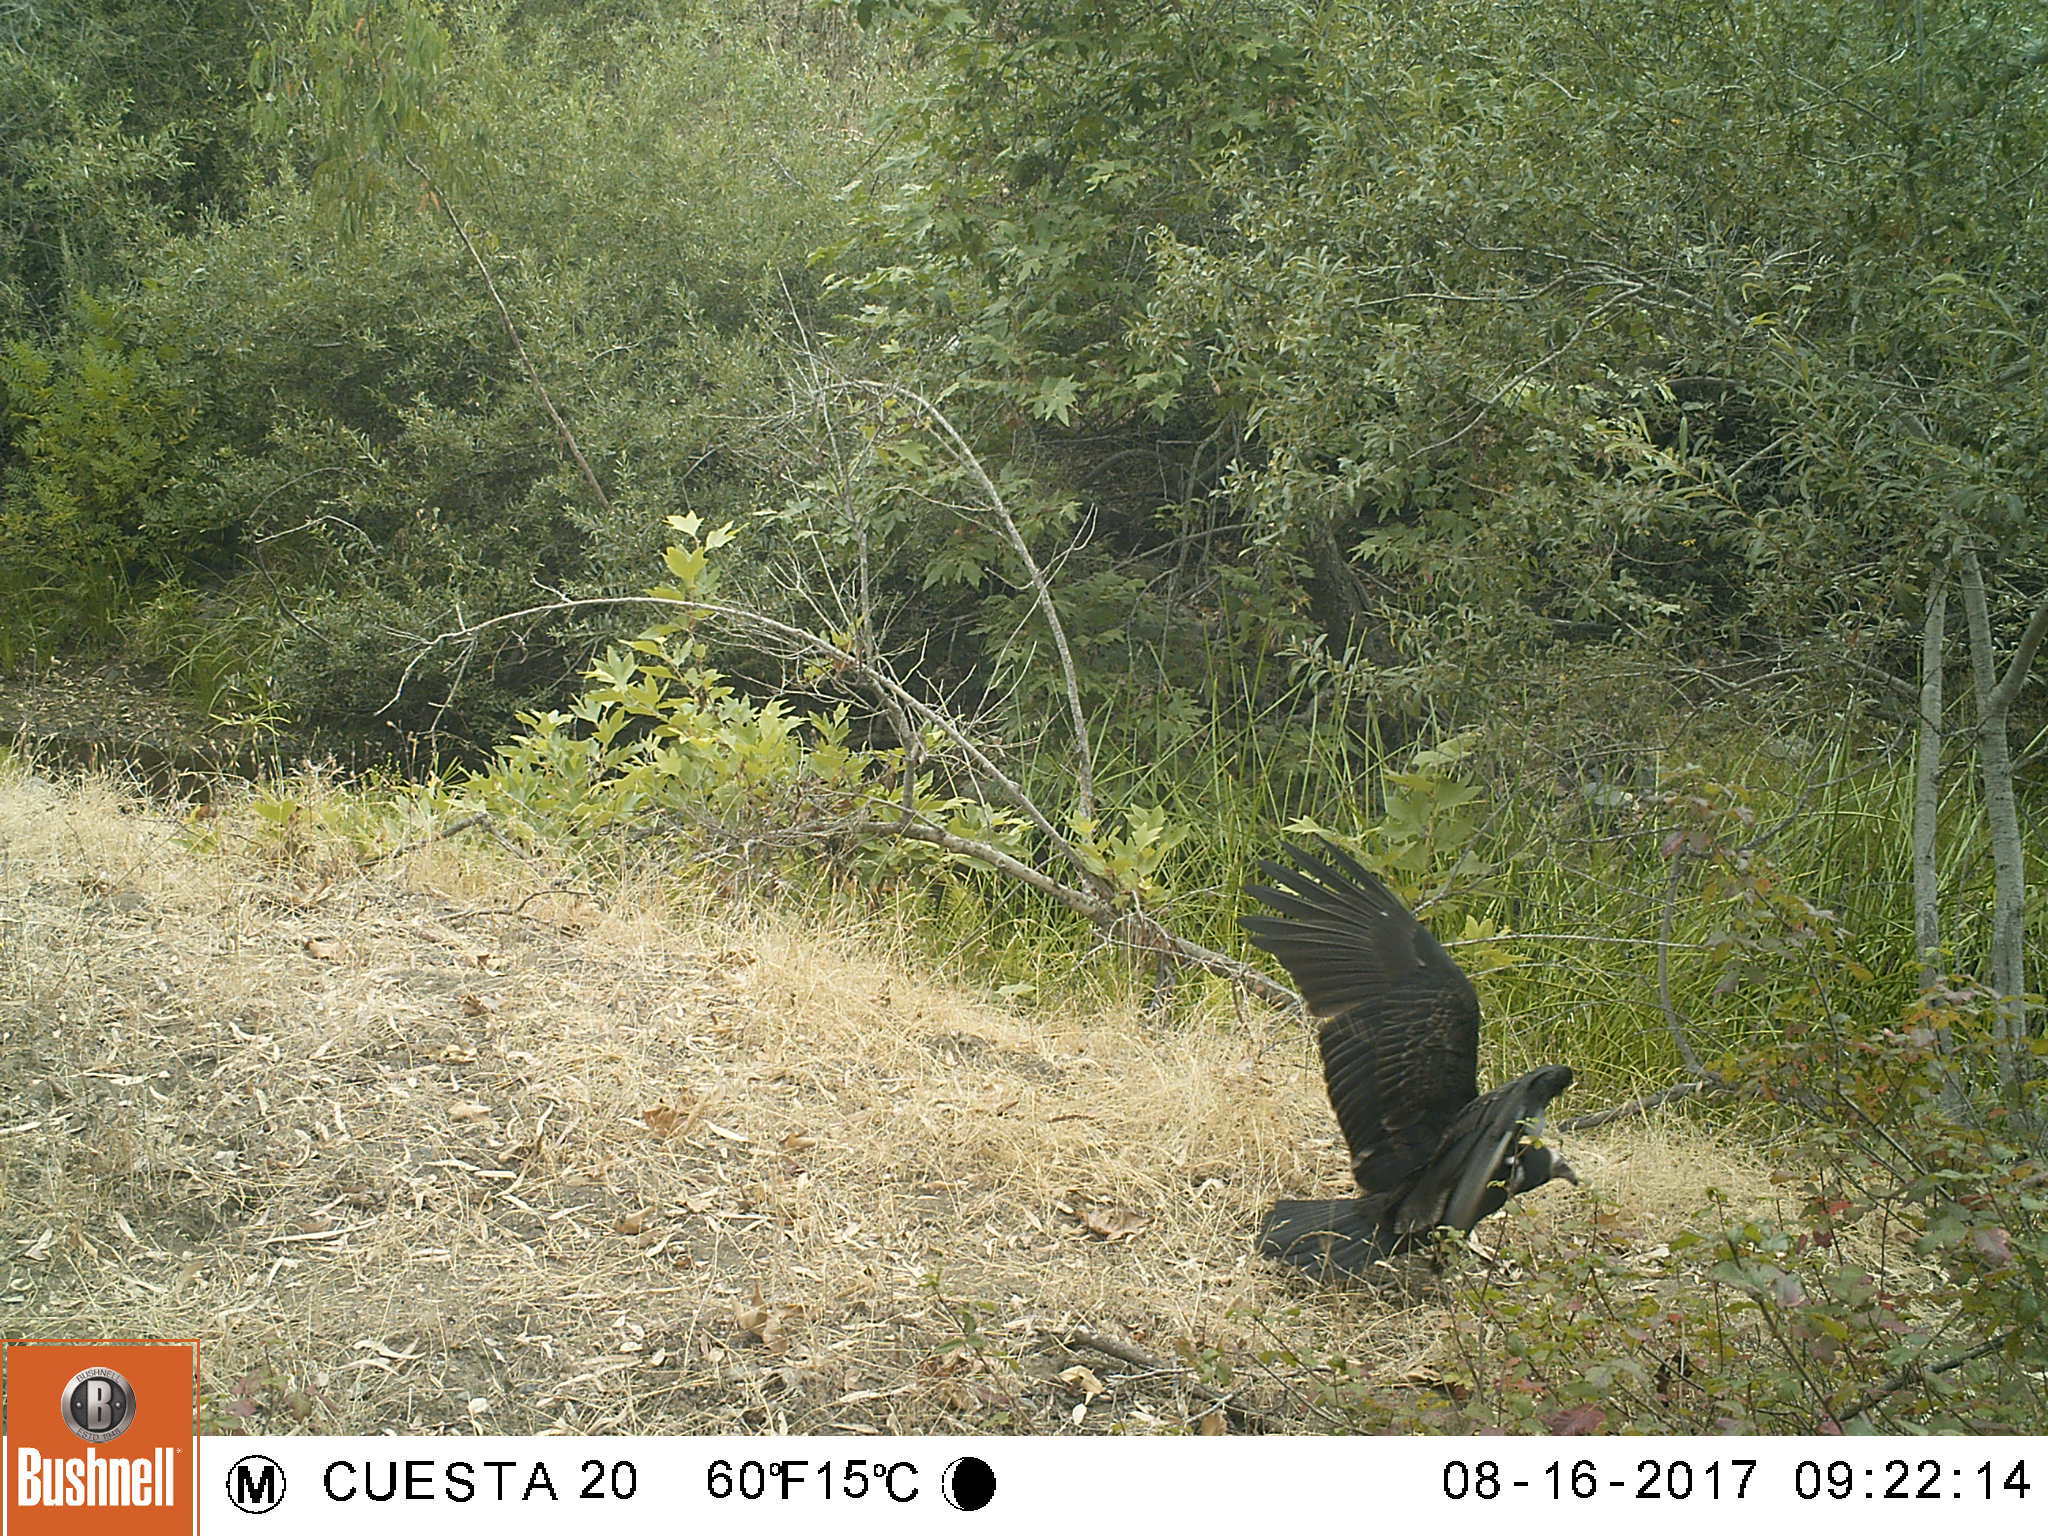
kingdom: Animalia
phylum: Chordata
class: Aves
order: Accipitriformes
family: Cathartidae
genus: Cathartes
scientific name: Cathartes aura
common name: Turkey vulture
